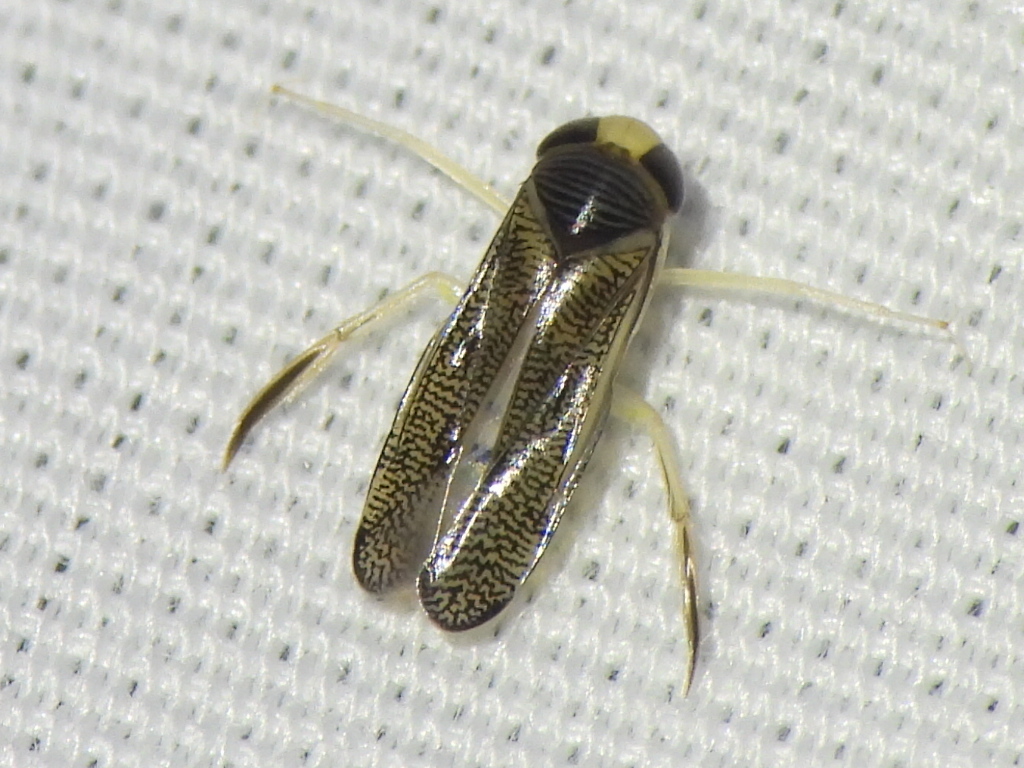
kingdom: Animalia
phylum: Arthropoda
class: Insecta
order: Hemiptera
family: Corixidae
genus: Trichocorixa
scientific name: Trichocorixa
